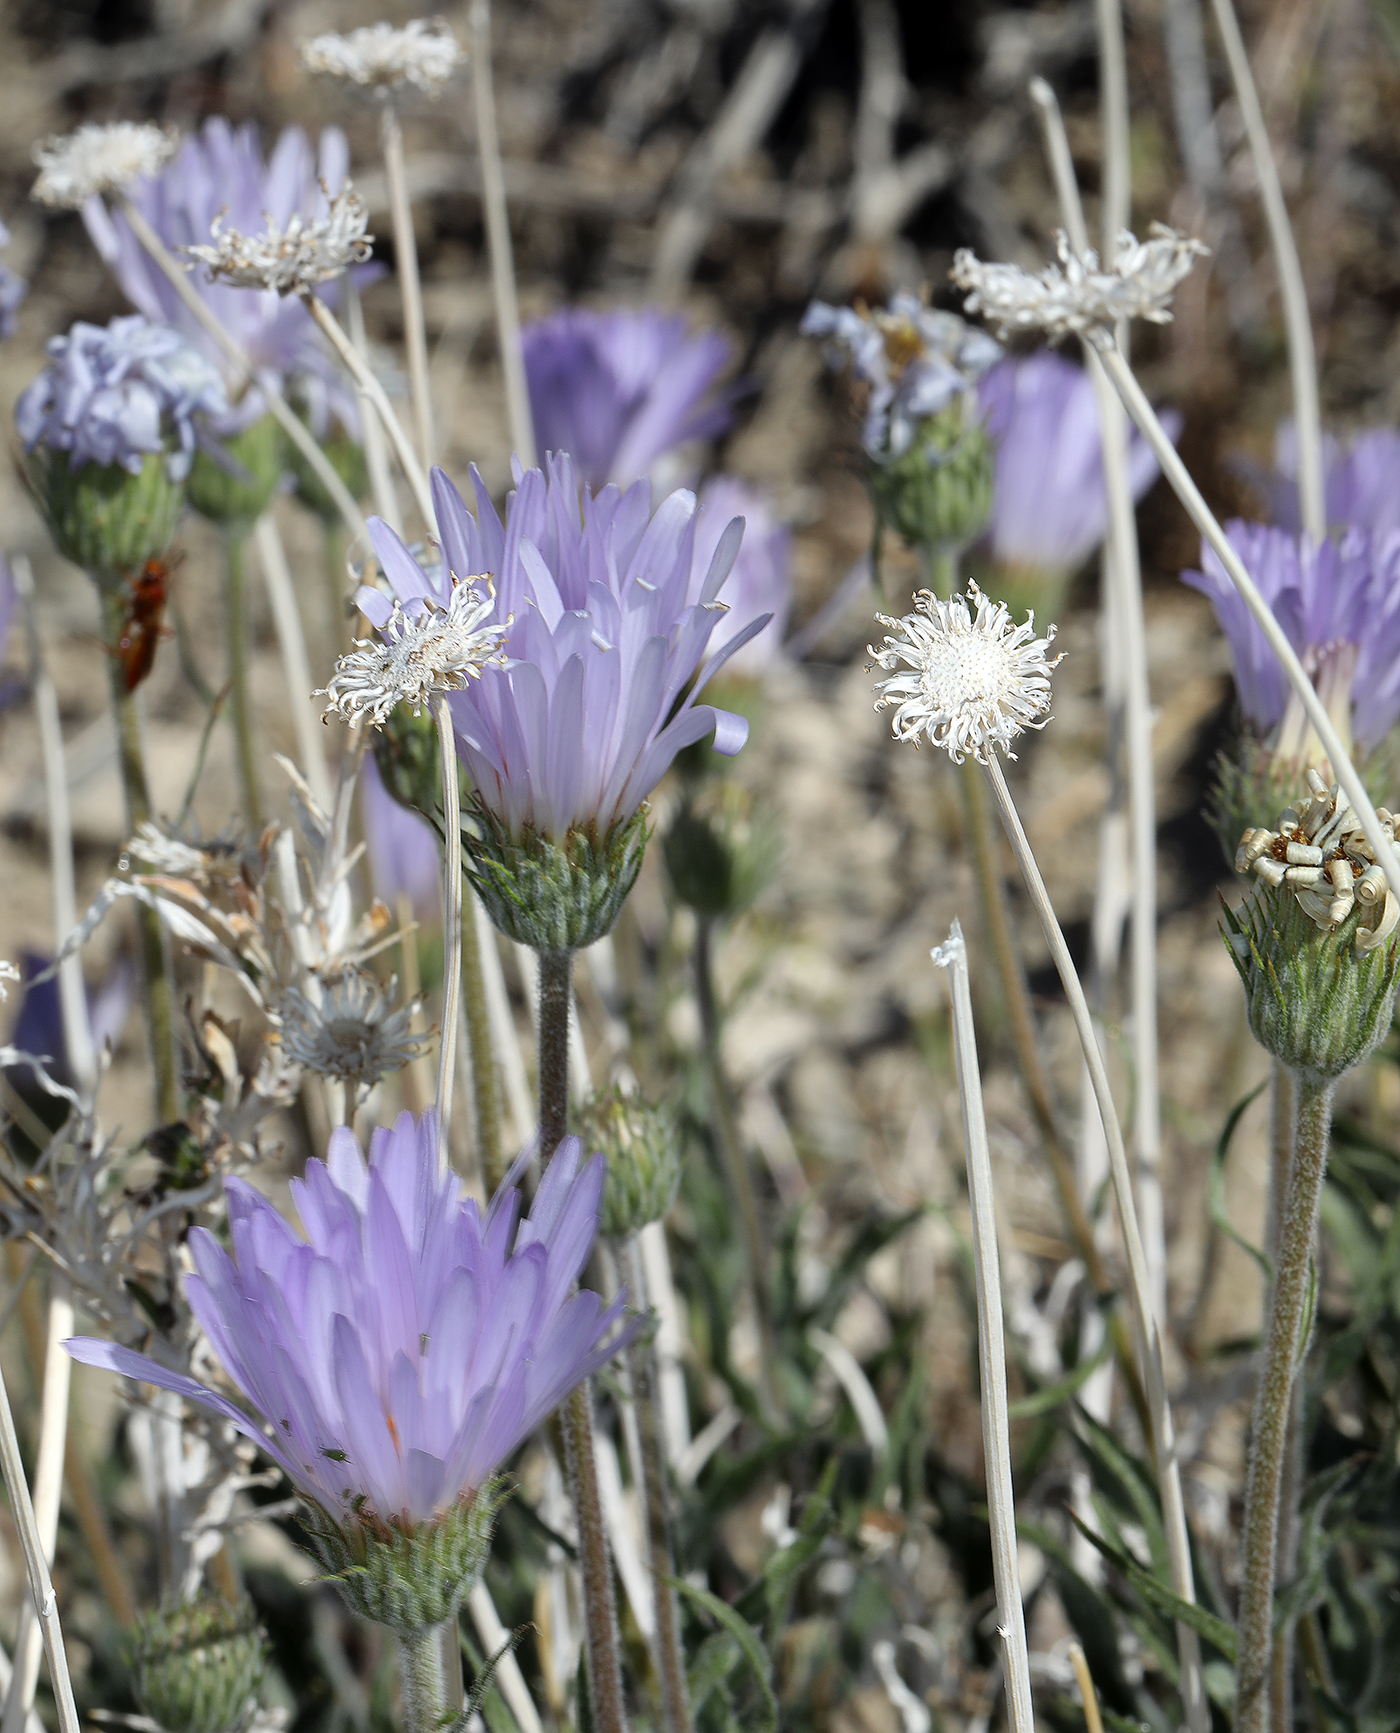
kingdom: Plantae
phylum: Tracheophyta
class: Magnoliopsida
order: Asterales
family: Asteraceae
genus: Xylorhiza
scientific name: Xylorhiza tortifolia
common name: Hurt-leaf woody-aster
